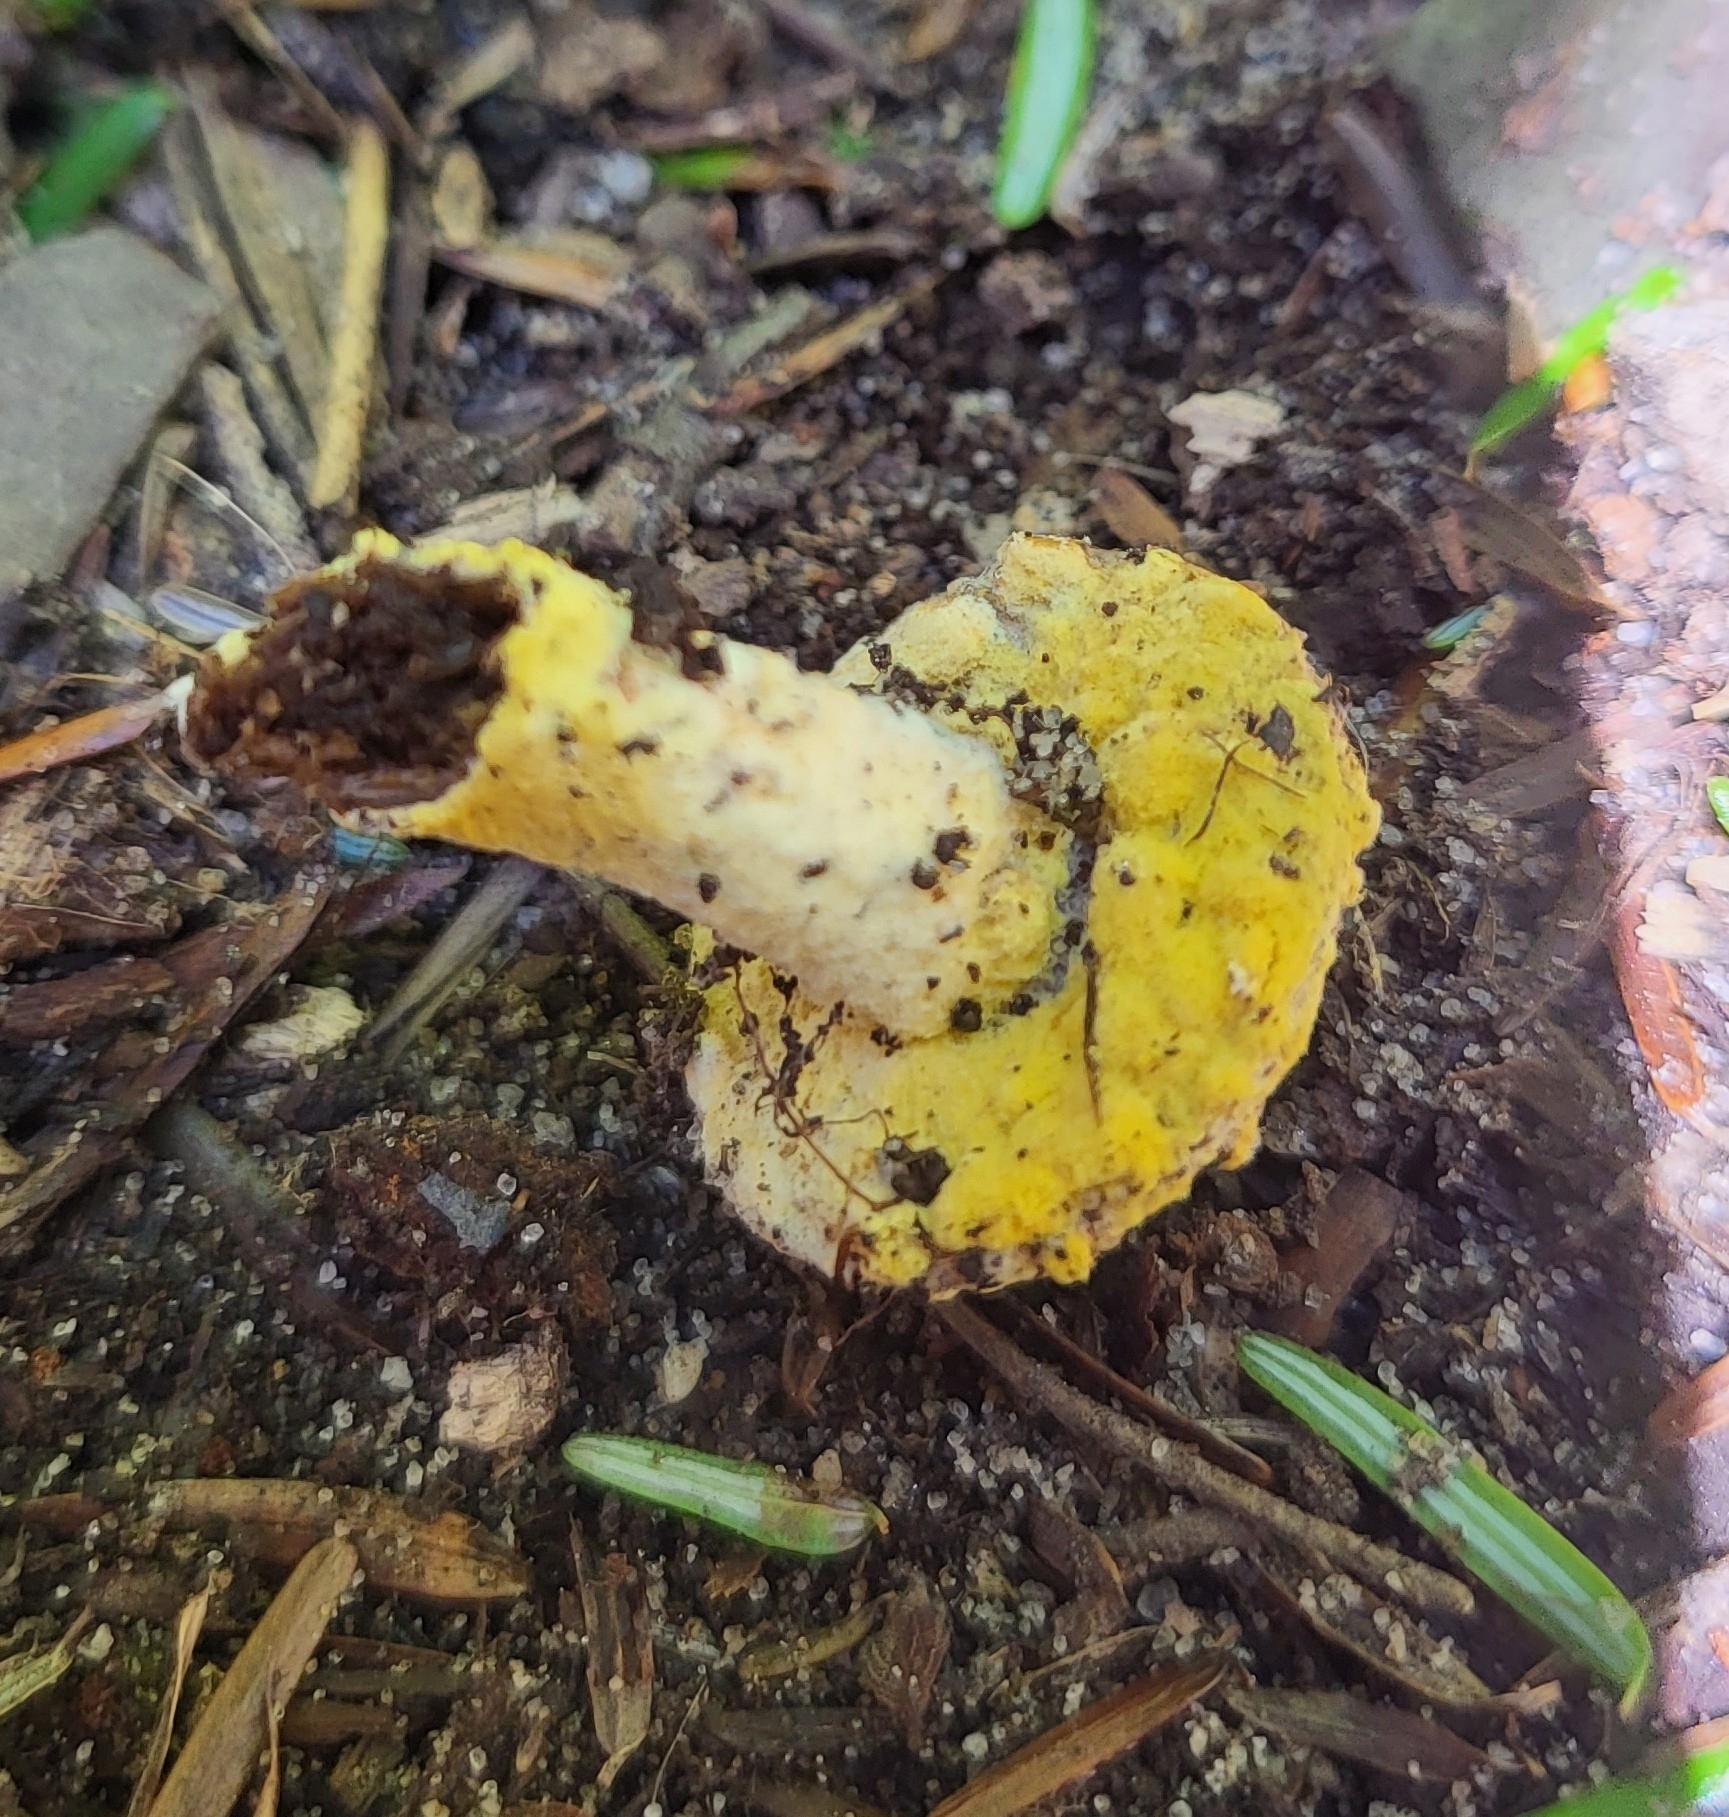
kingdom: Fungi
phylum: Ascomycota
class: Sordariomycetes
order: Hypocreales
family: Hypocreaceae
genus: Hypomyces
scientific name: Hypomyces chrysospermus
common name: Bolete mould
